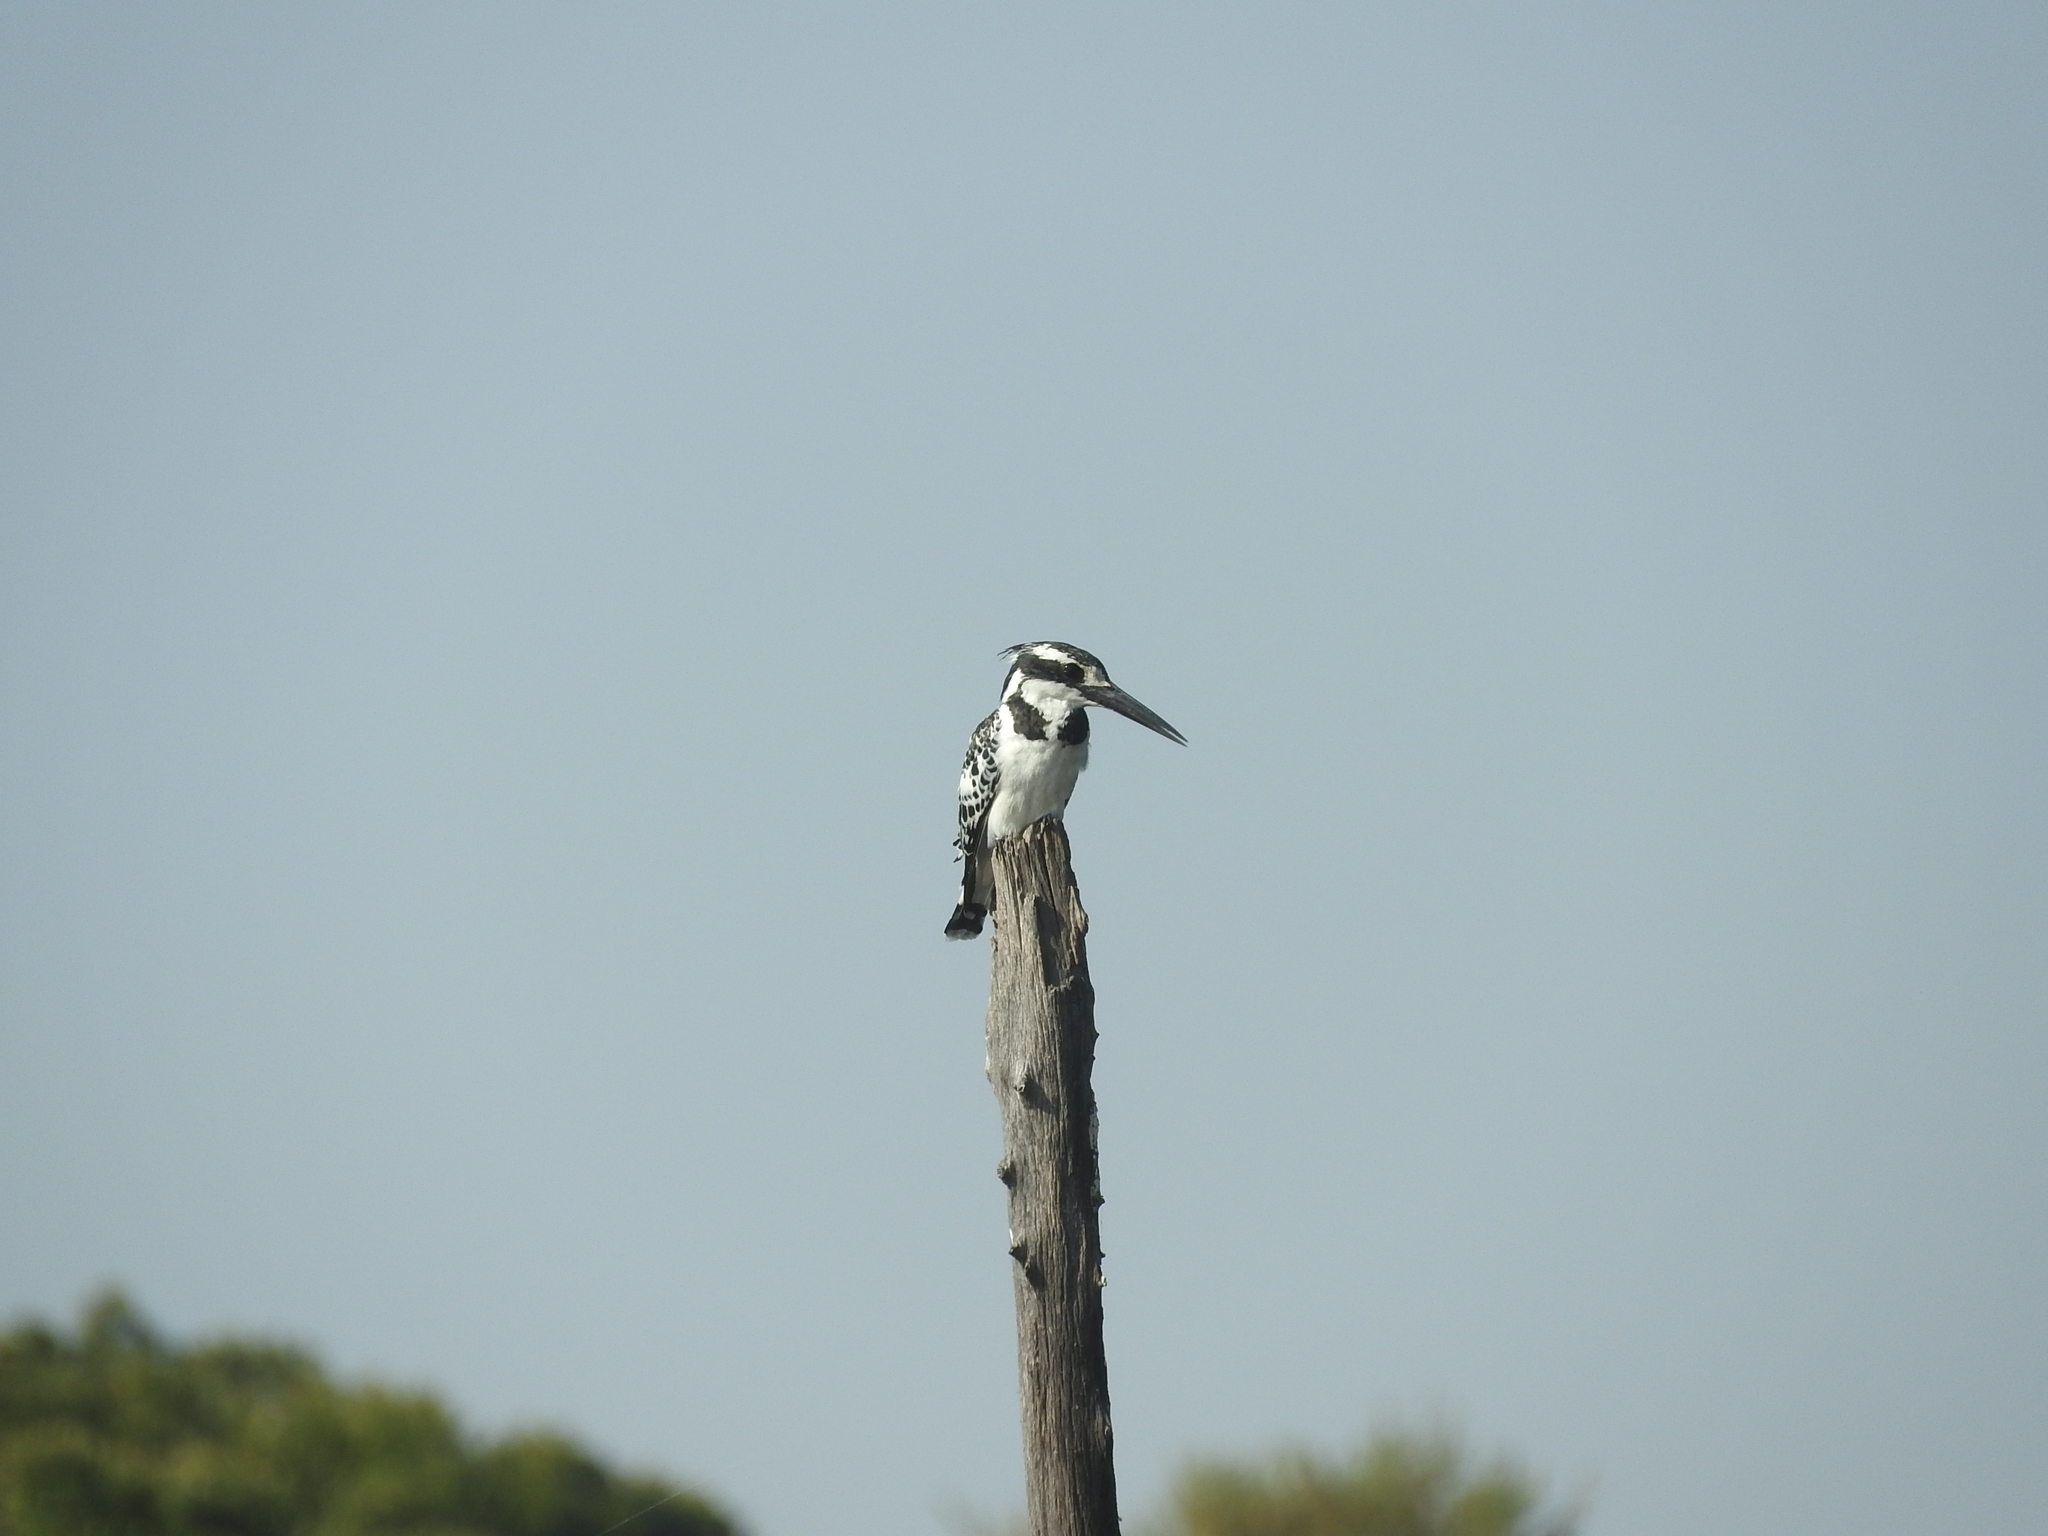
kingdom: Animalia
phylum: Chordata
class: Aves
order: Coraciiformes
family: Alcedinidae
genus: Ceryle
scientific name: Ceryle rudis
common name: Pied kingfisher
